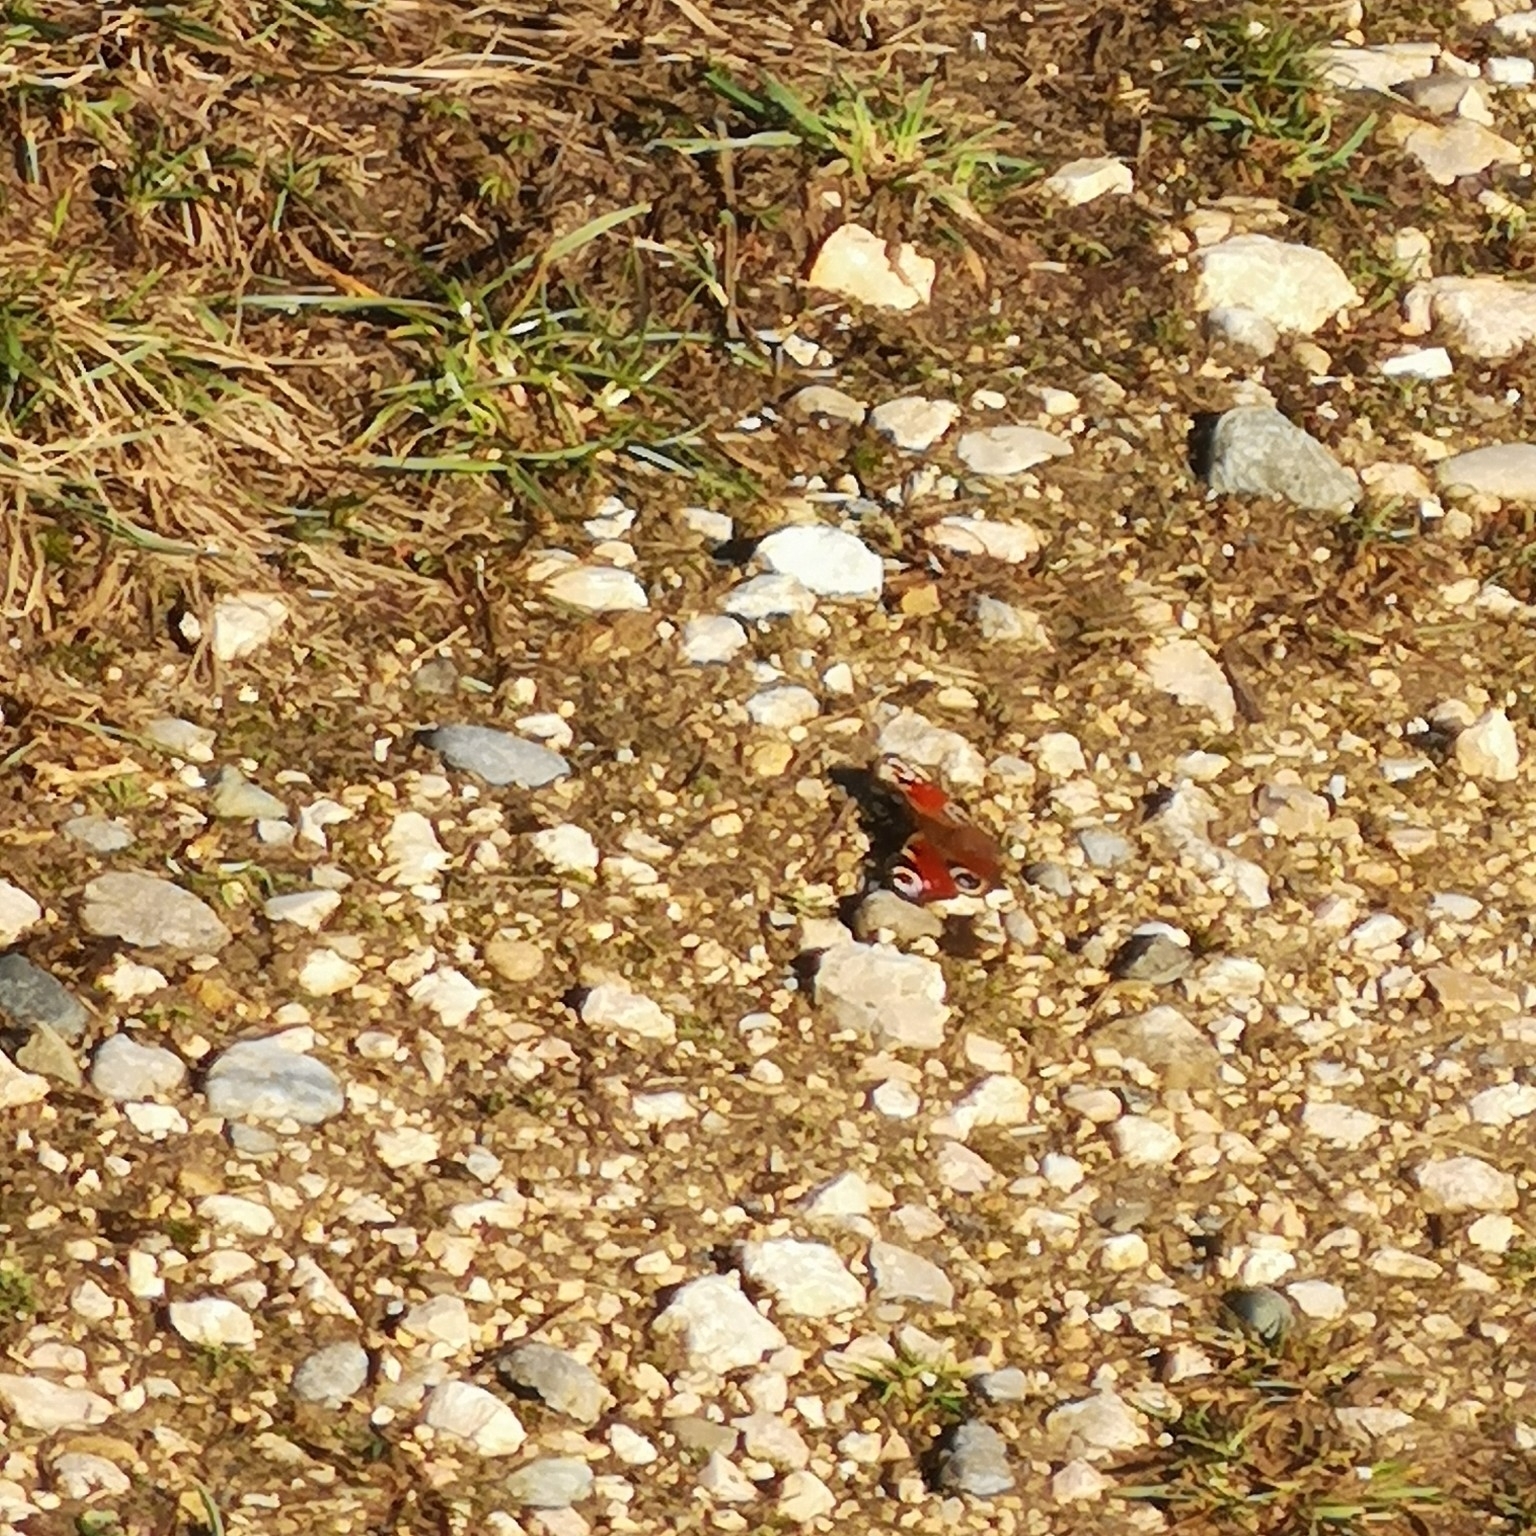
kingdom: Animalia
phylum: Arthropoda
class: Insecta
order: Lepidoptera
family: Nymphalidae
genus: Aglais
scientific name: Aglais io
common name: Peacock
